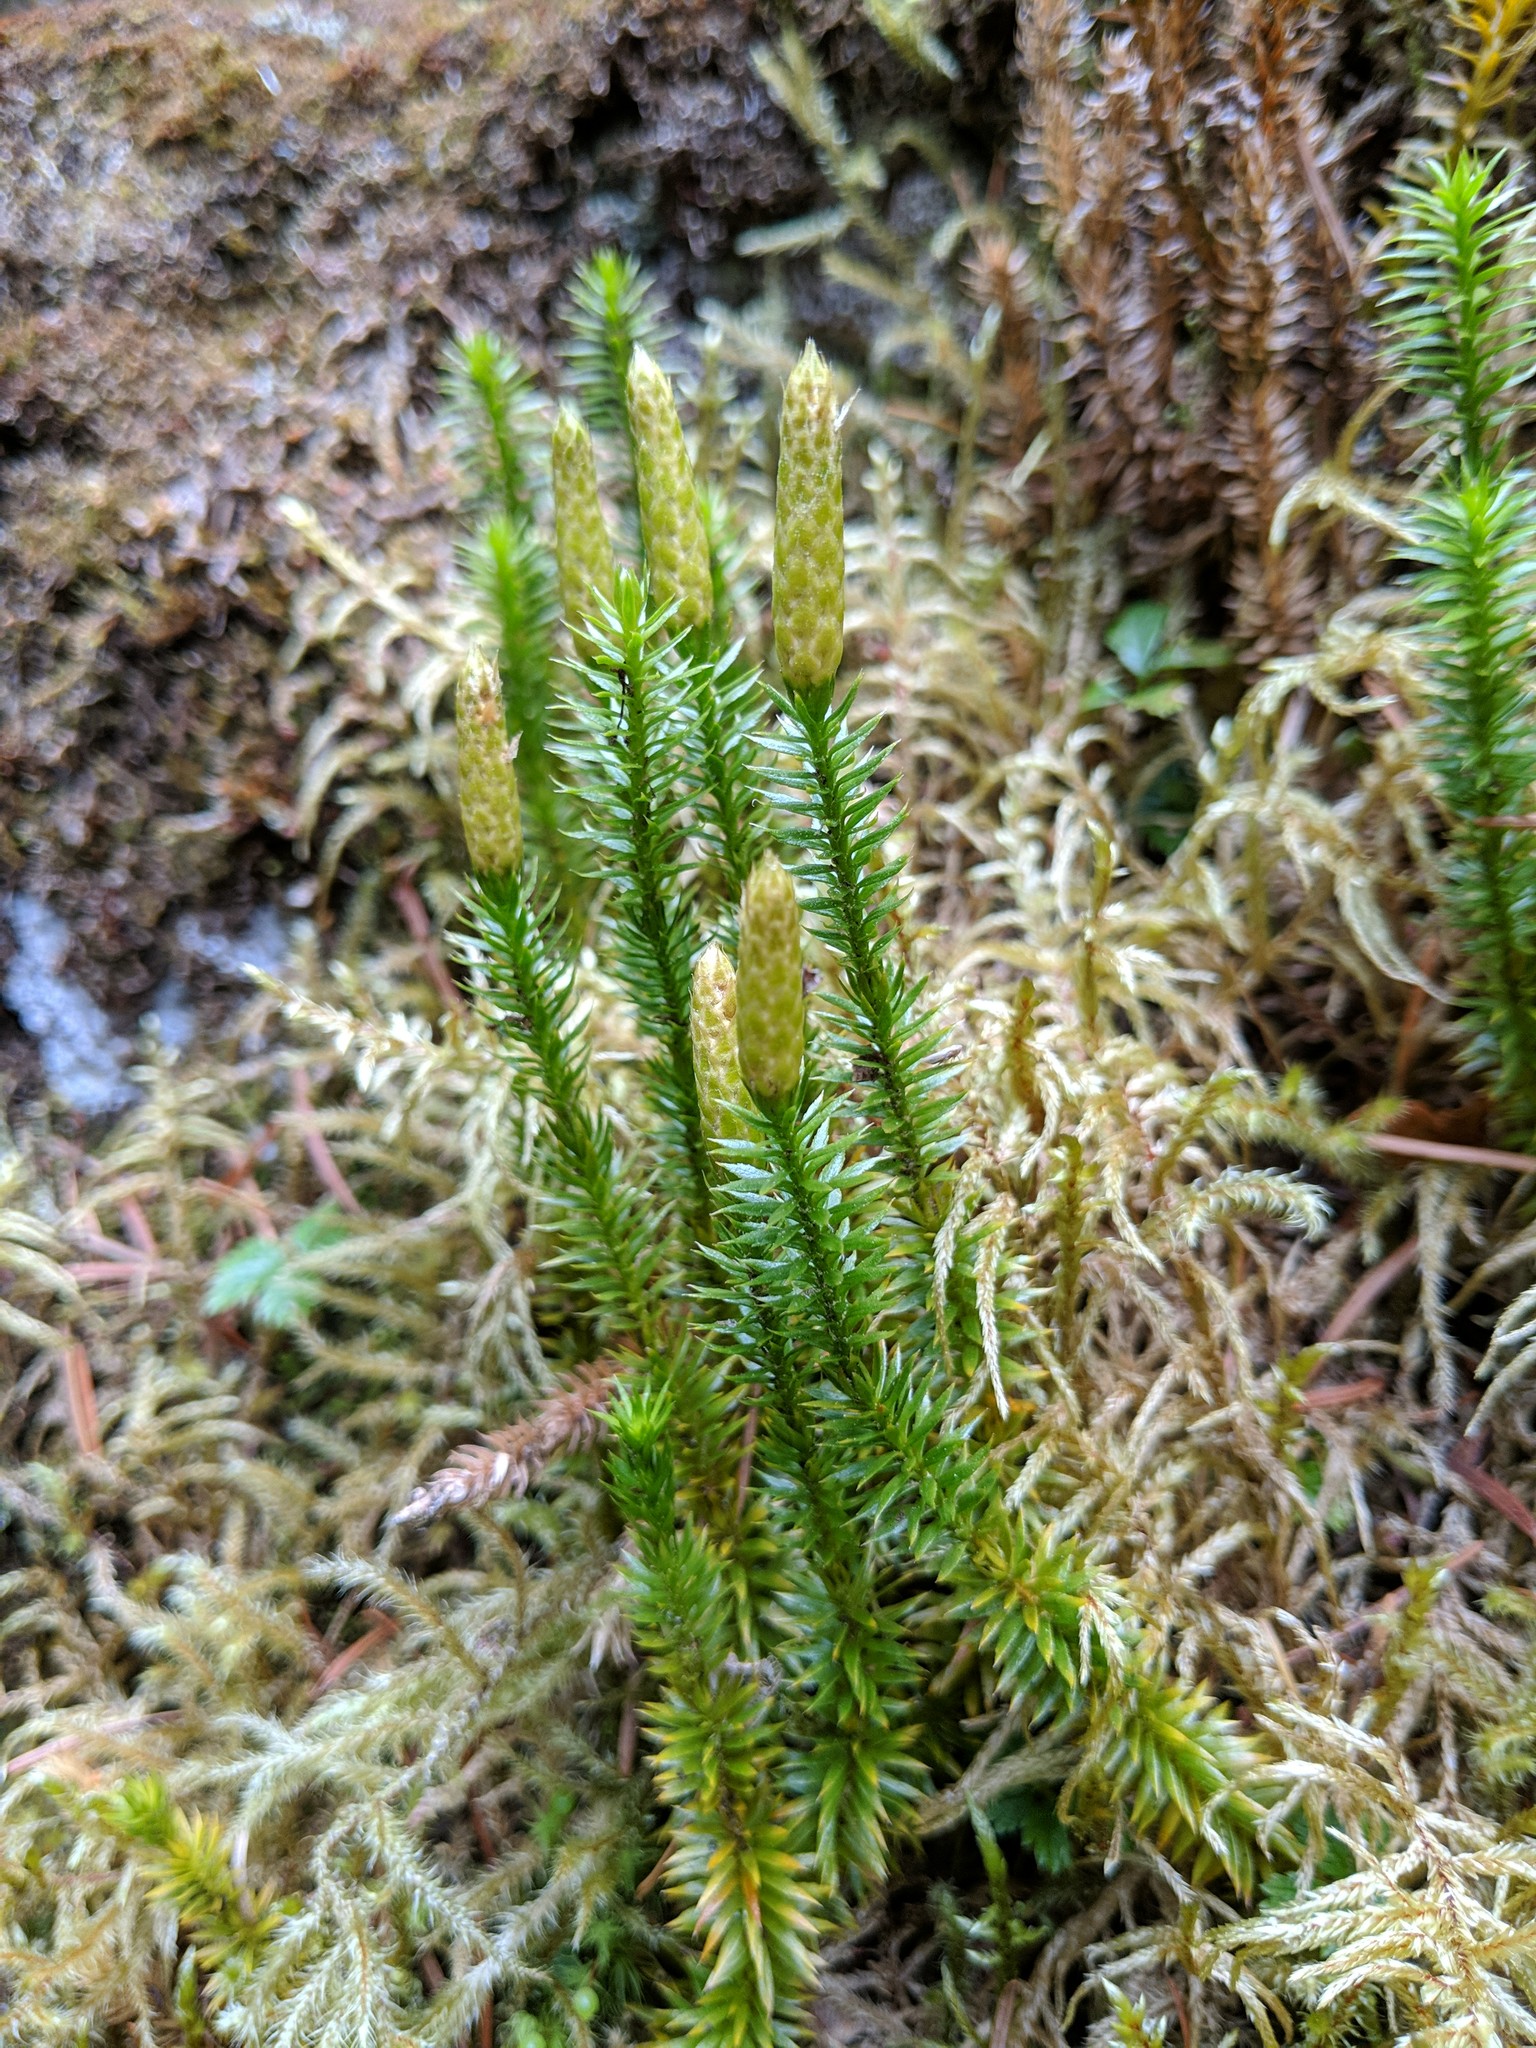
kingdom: Plantae
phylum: Tracheophyta
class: Lycopodiopsida
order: Lycopodiales
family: Lycopodiaceae
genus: Spinulum
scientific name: Spinulum annotinum
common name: Interrupted club-moss
